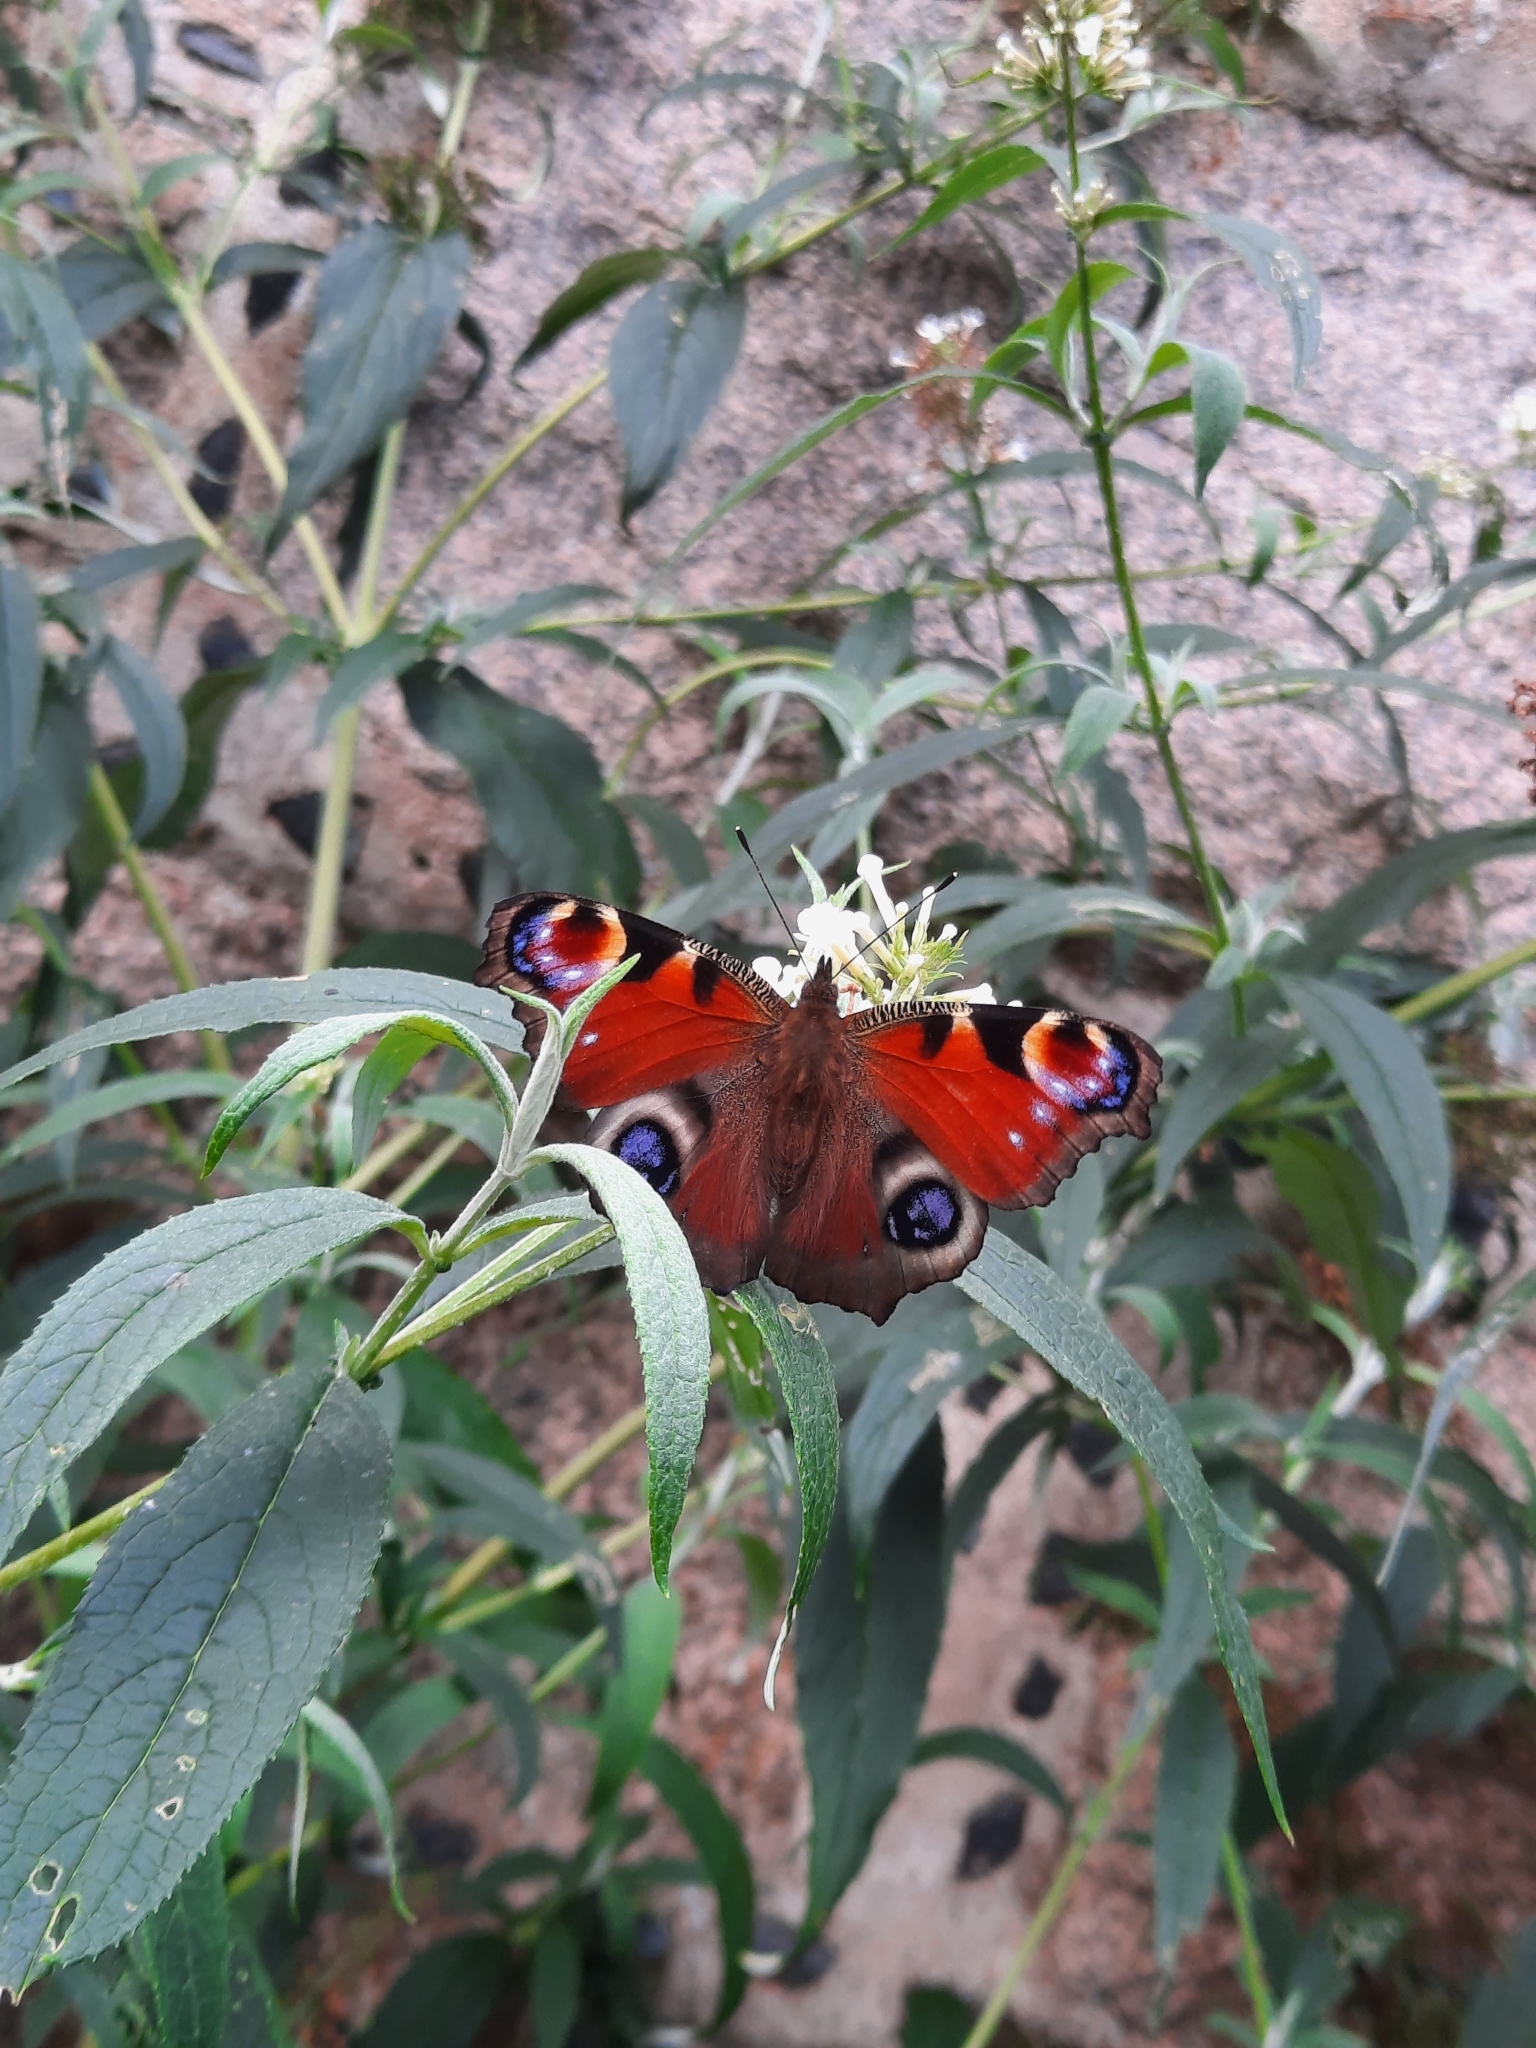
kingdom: Animalia
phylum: Arthropoda
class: Insecta
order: Lepidoptera
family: Nymphalidae
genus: Aglais
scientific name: Aglais io
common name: Peacock
